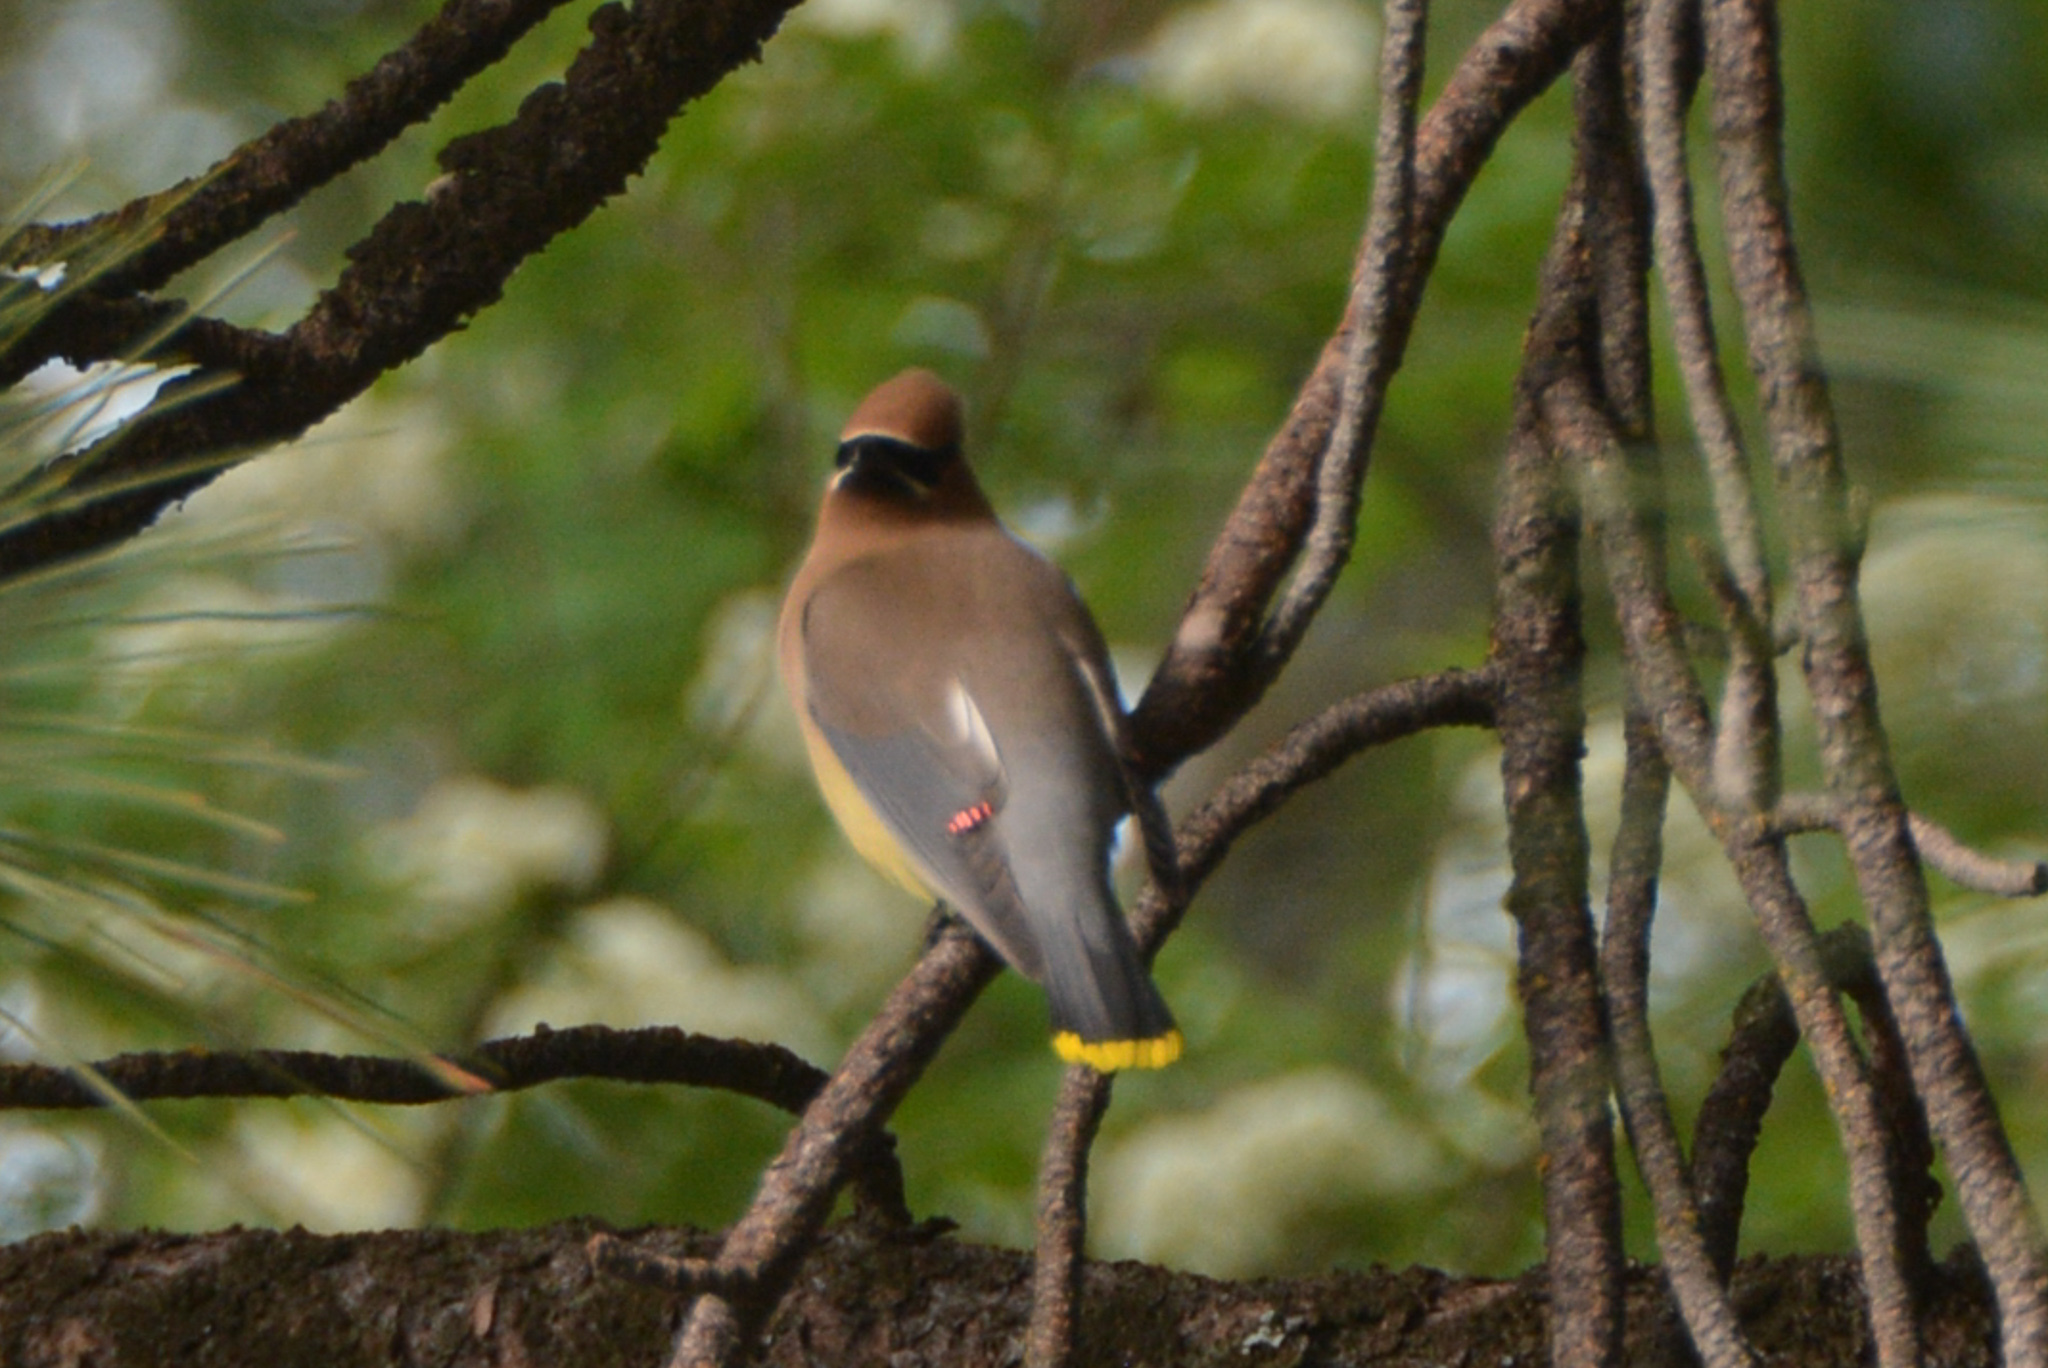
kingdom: Animalia
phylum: Chordata
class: Aves
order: Passeriformes
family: Bombycillidae
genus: Bombycilla
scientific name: Bombycilla cedrorum
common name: Cedar waxwing
